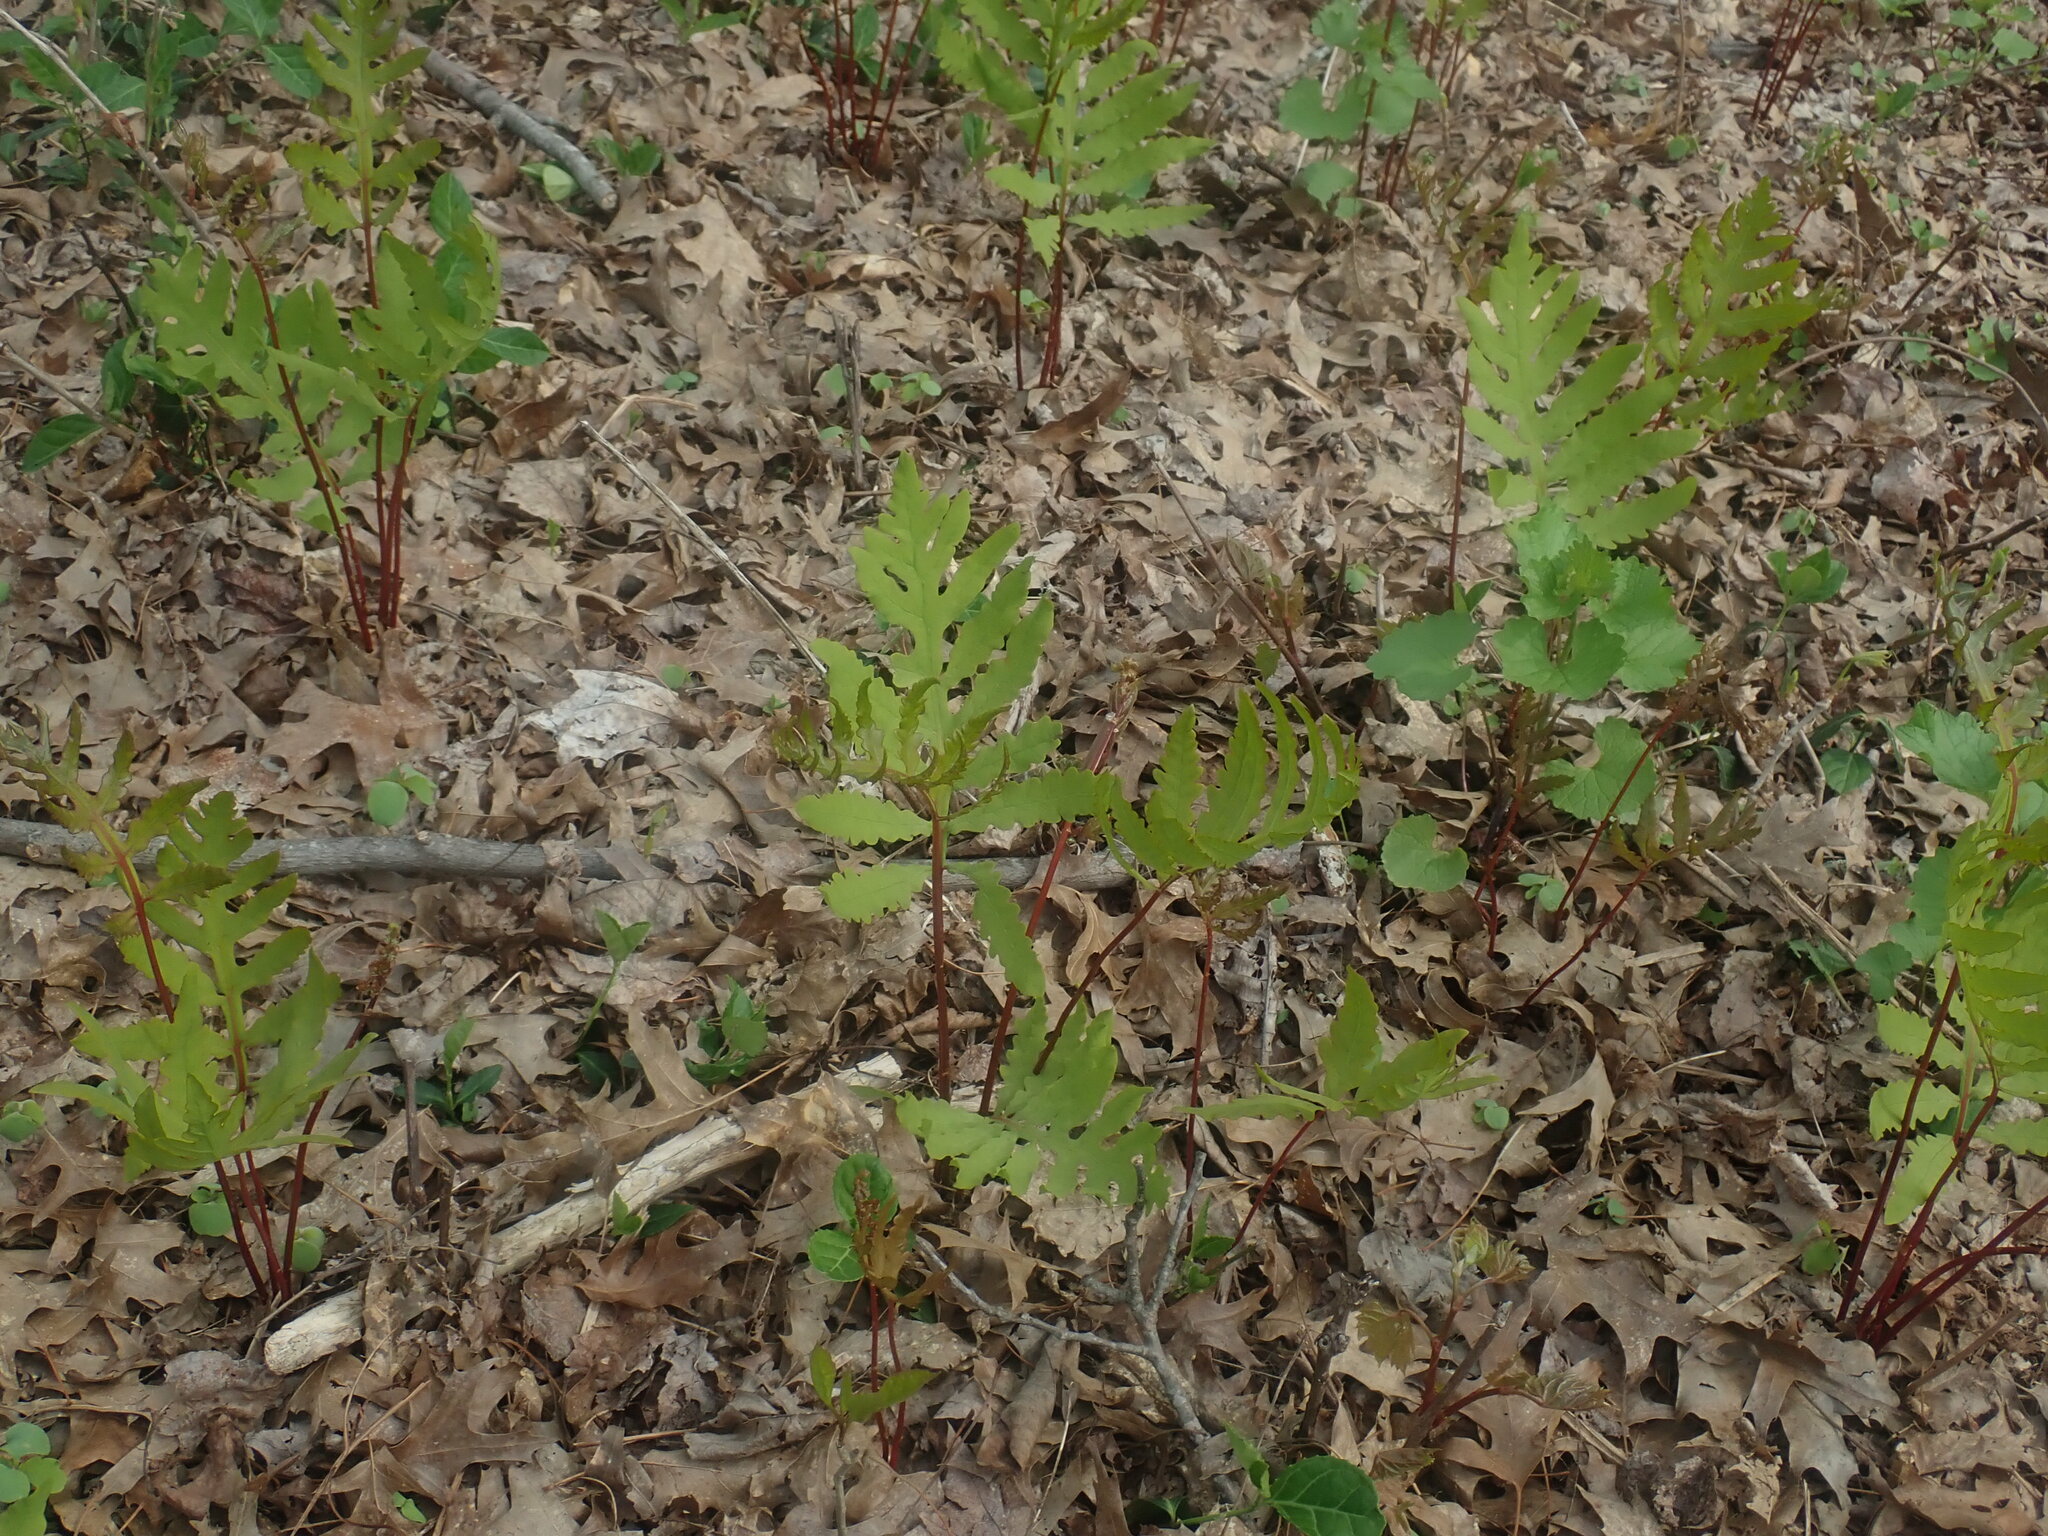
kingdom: Plantae
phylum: Tracheophyta
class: Polypodiopsida
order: Polypodiales
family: Onocleaceae
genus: Onoclea
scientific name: Onoclea sensibilis
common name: Sensitive fern
